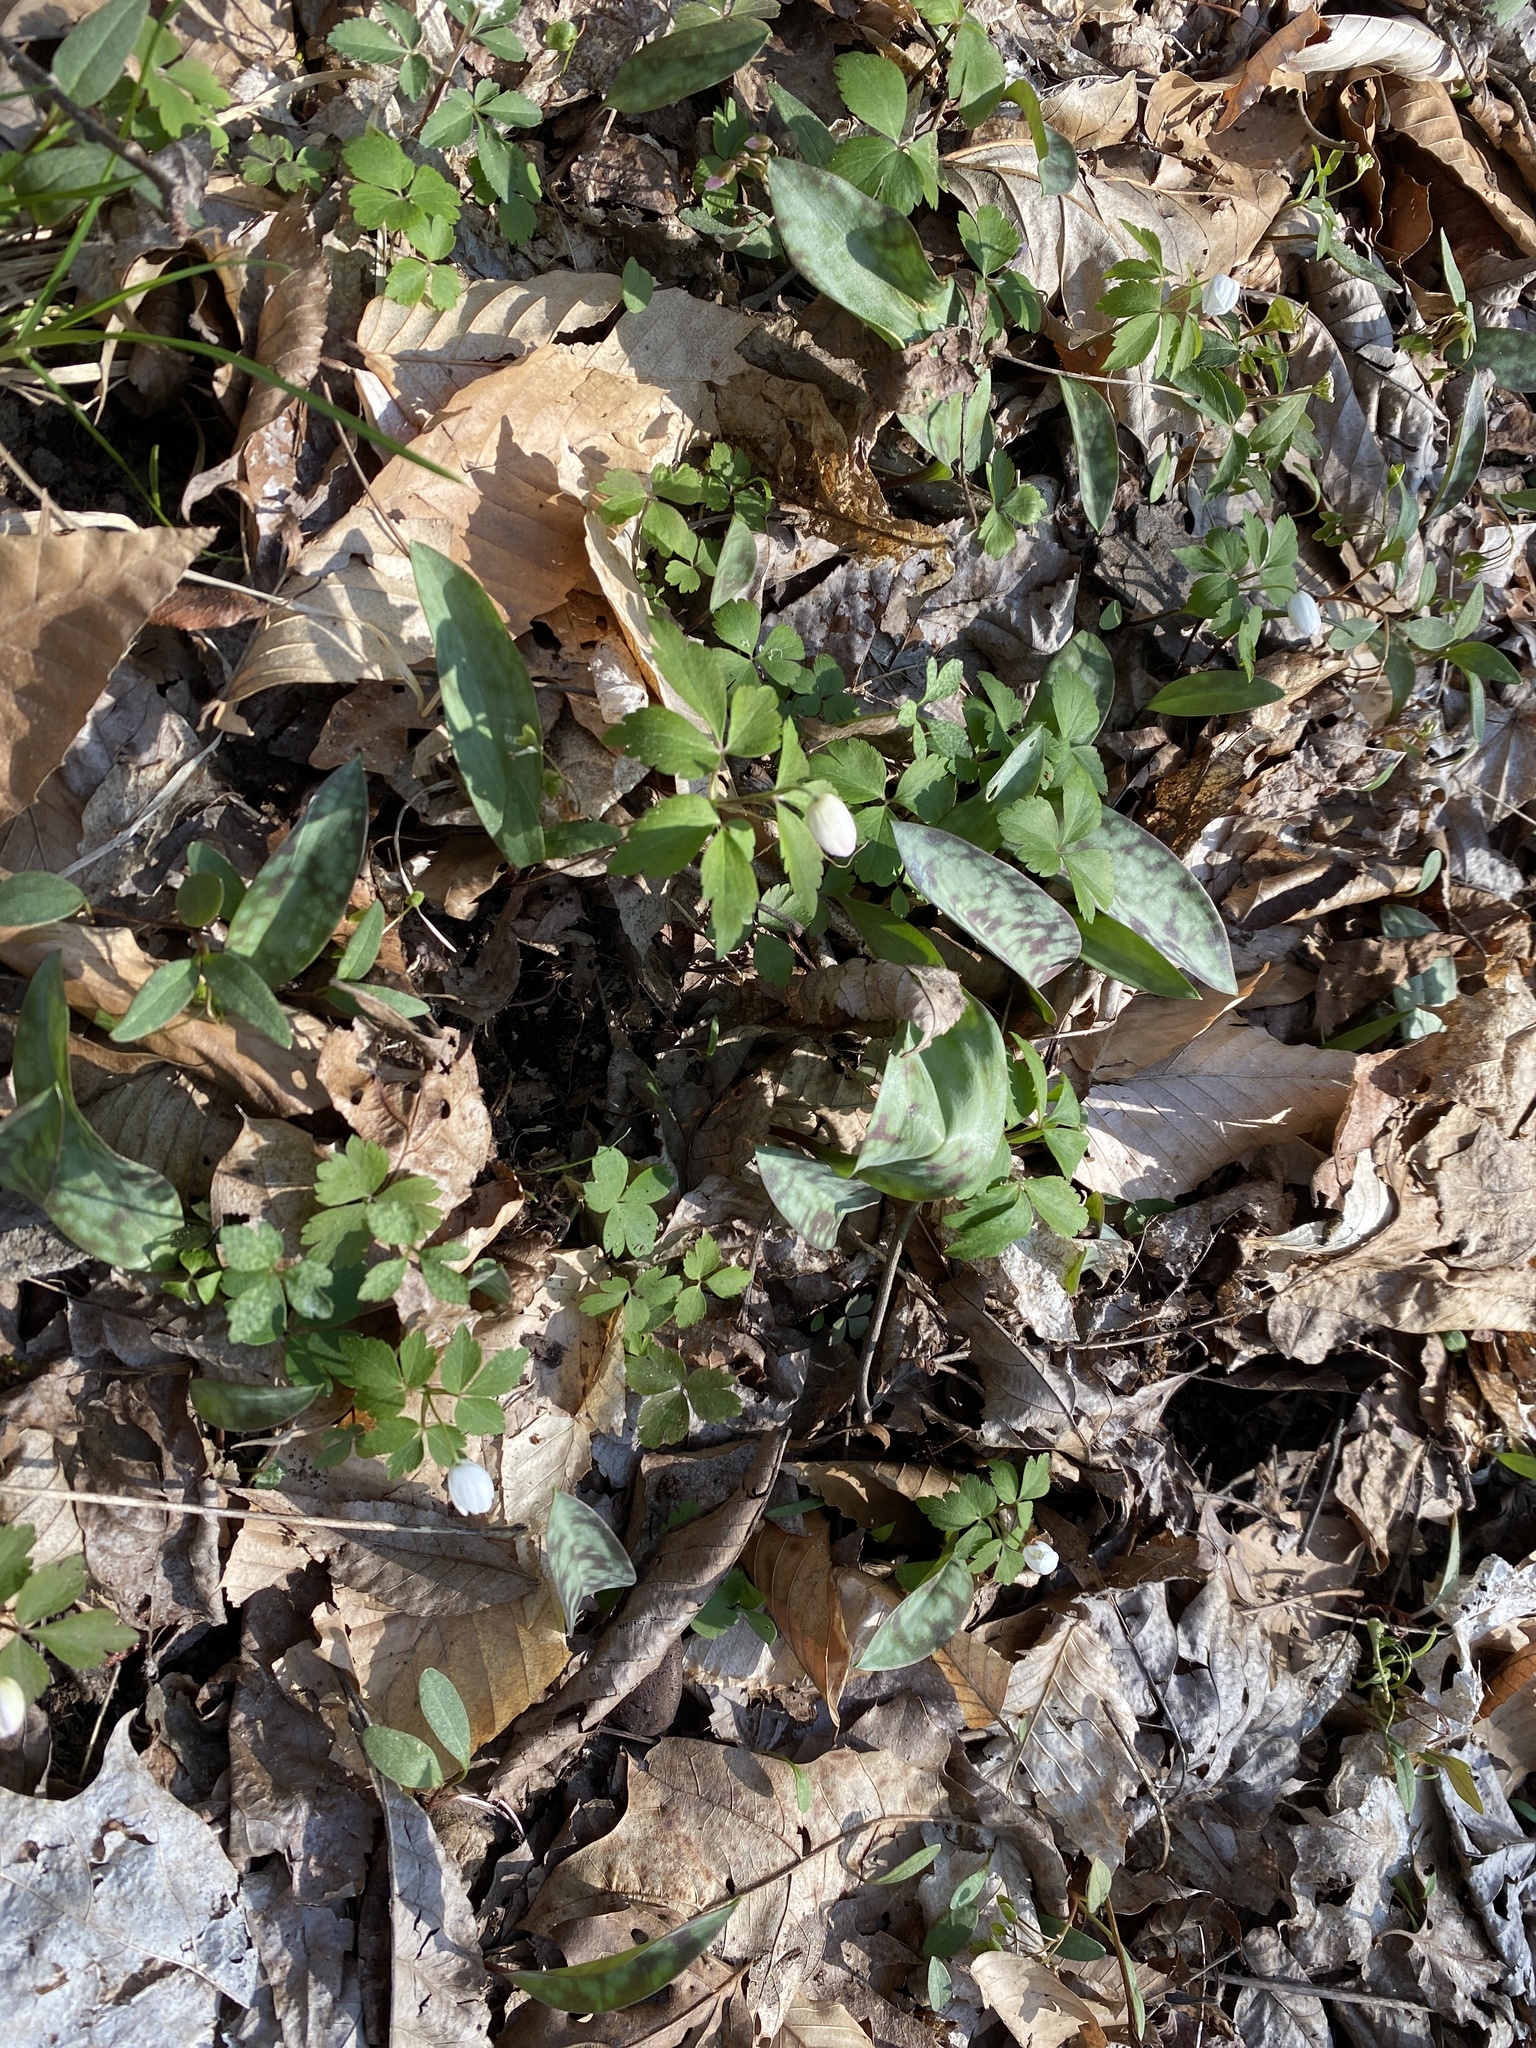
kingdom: Plantae
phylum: Tracheophyta
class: Magnoliopsida
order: Ranunculales
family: Ranunculaceae
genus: Anemone
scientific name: Anemone quinquefolia
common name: Wood anemone
